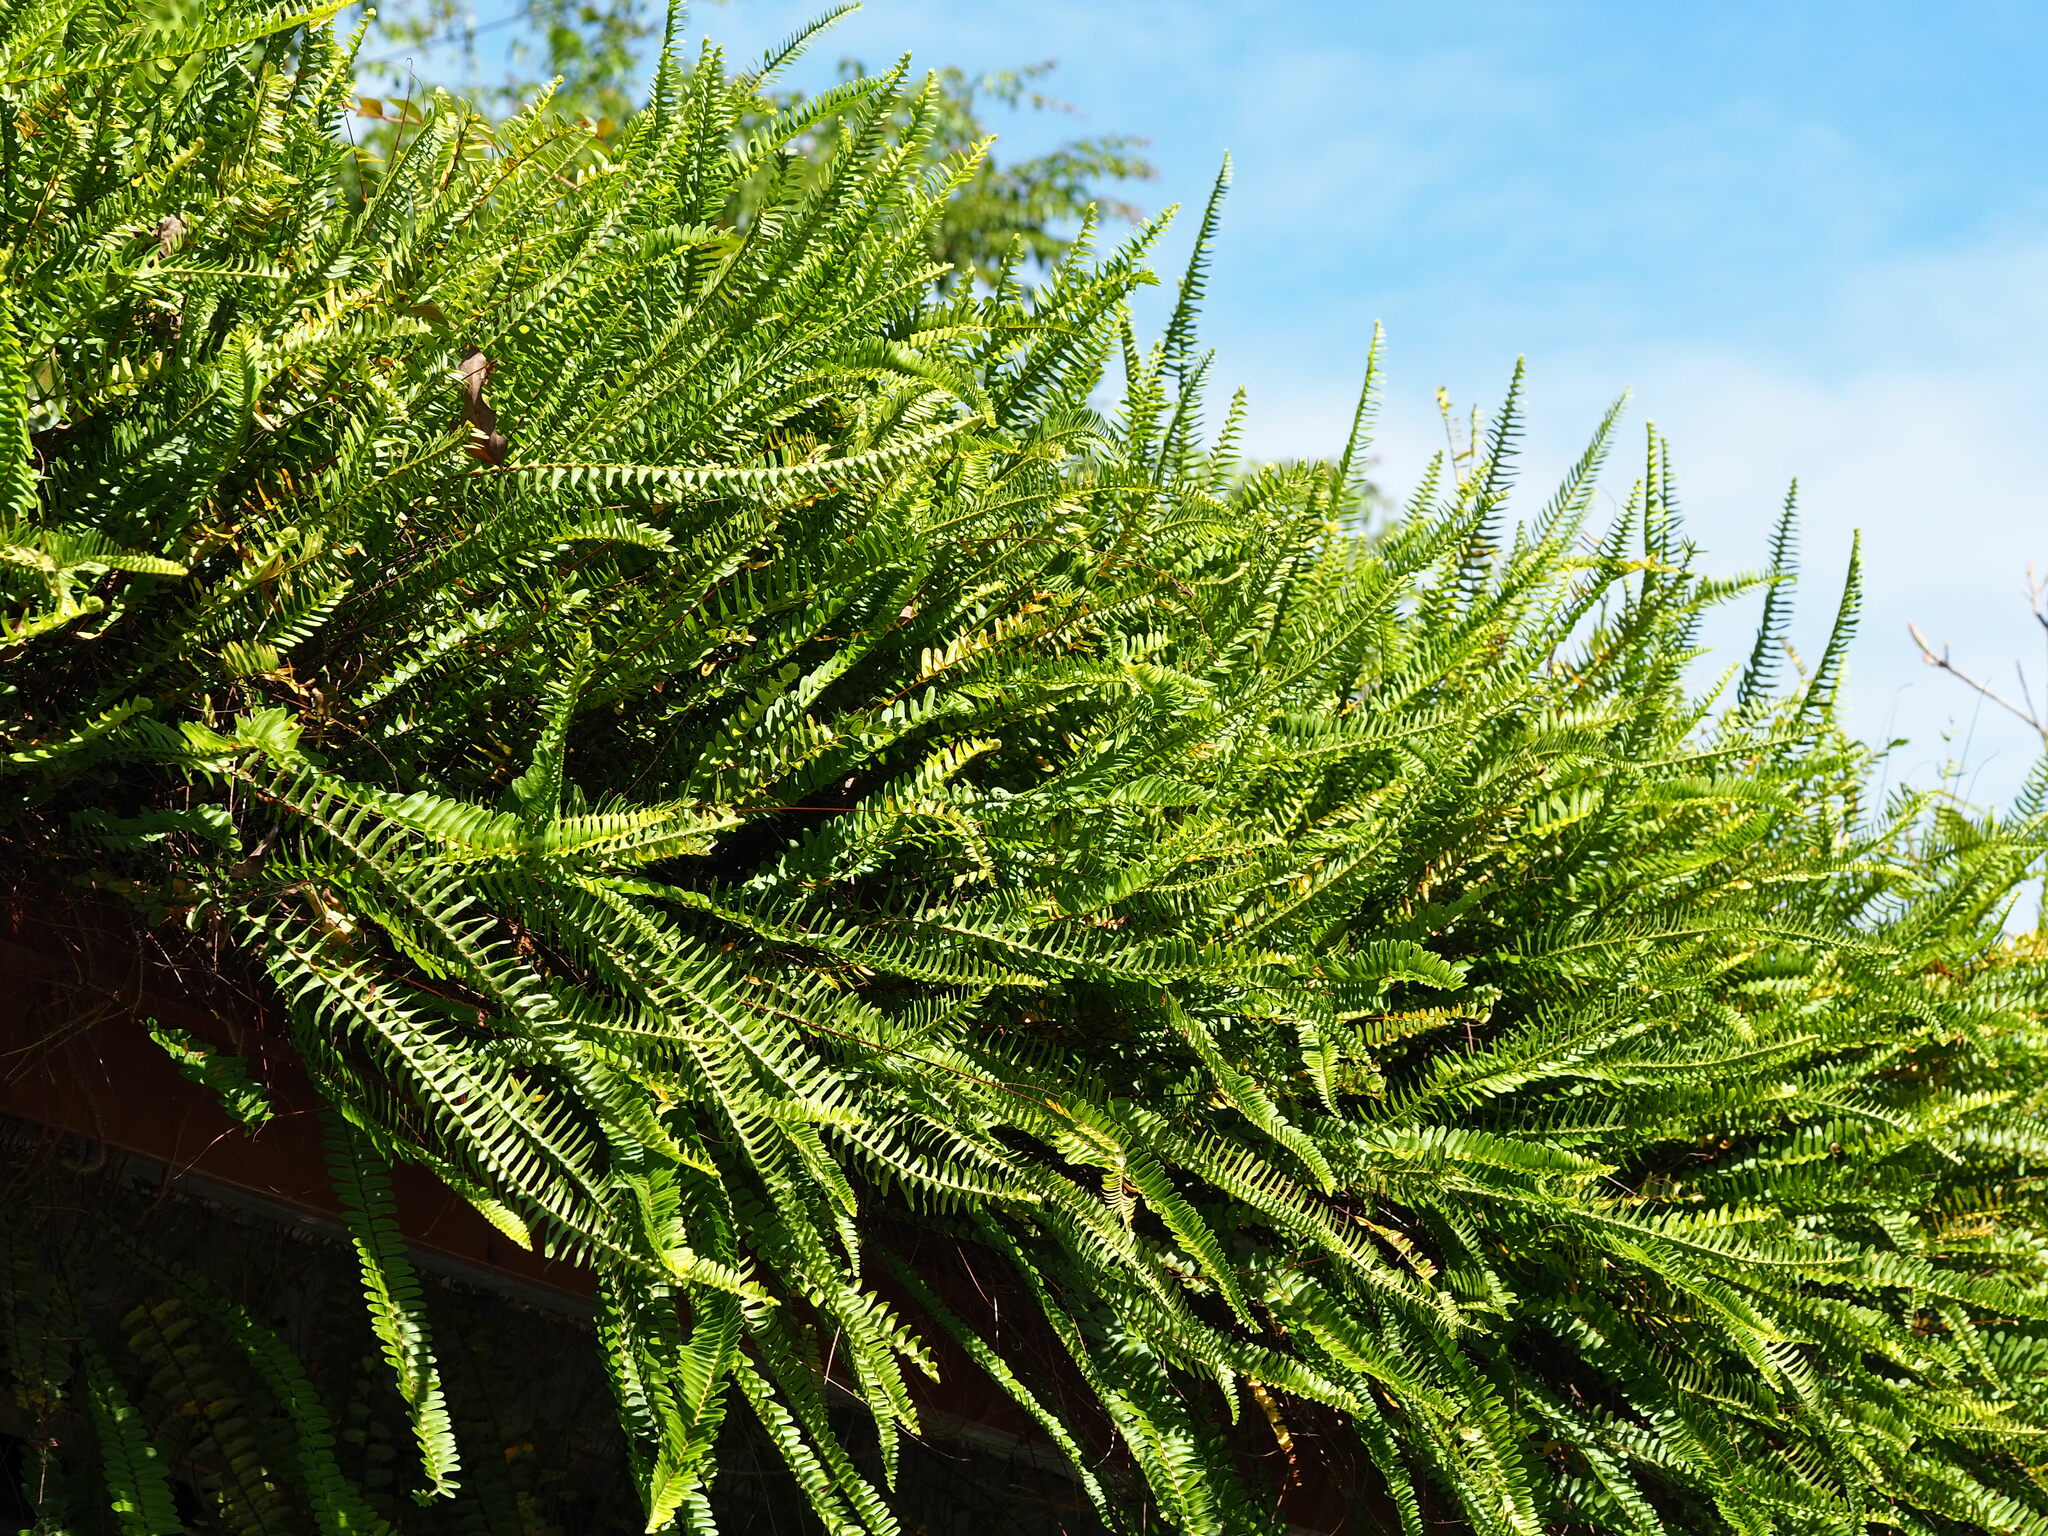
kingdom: Plantae
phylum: Tracheophyta
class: Polypodiopsida
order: Polypodiales
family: Nephrolepidaceae
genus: Nephrolepis
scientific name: Nephrolepis cordifolia
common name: Narrow swordfern
